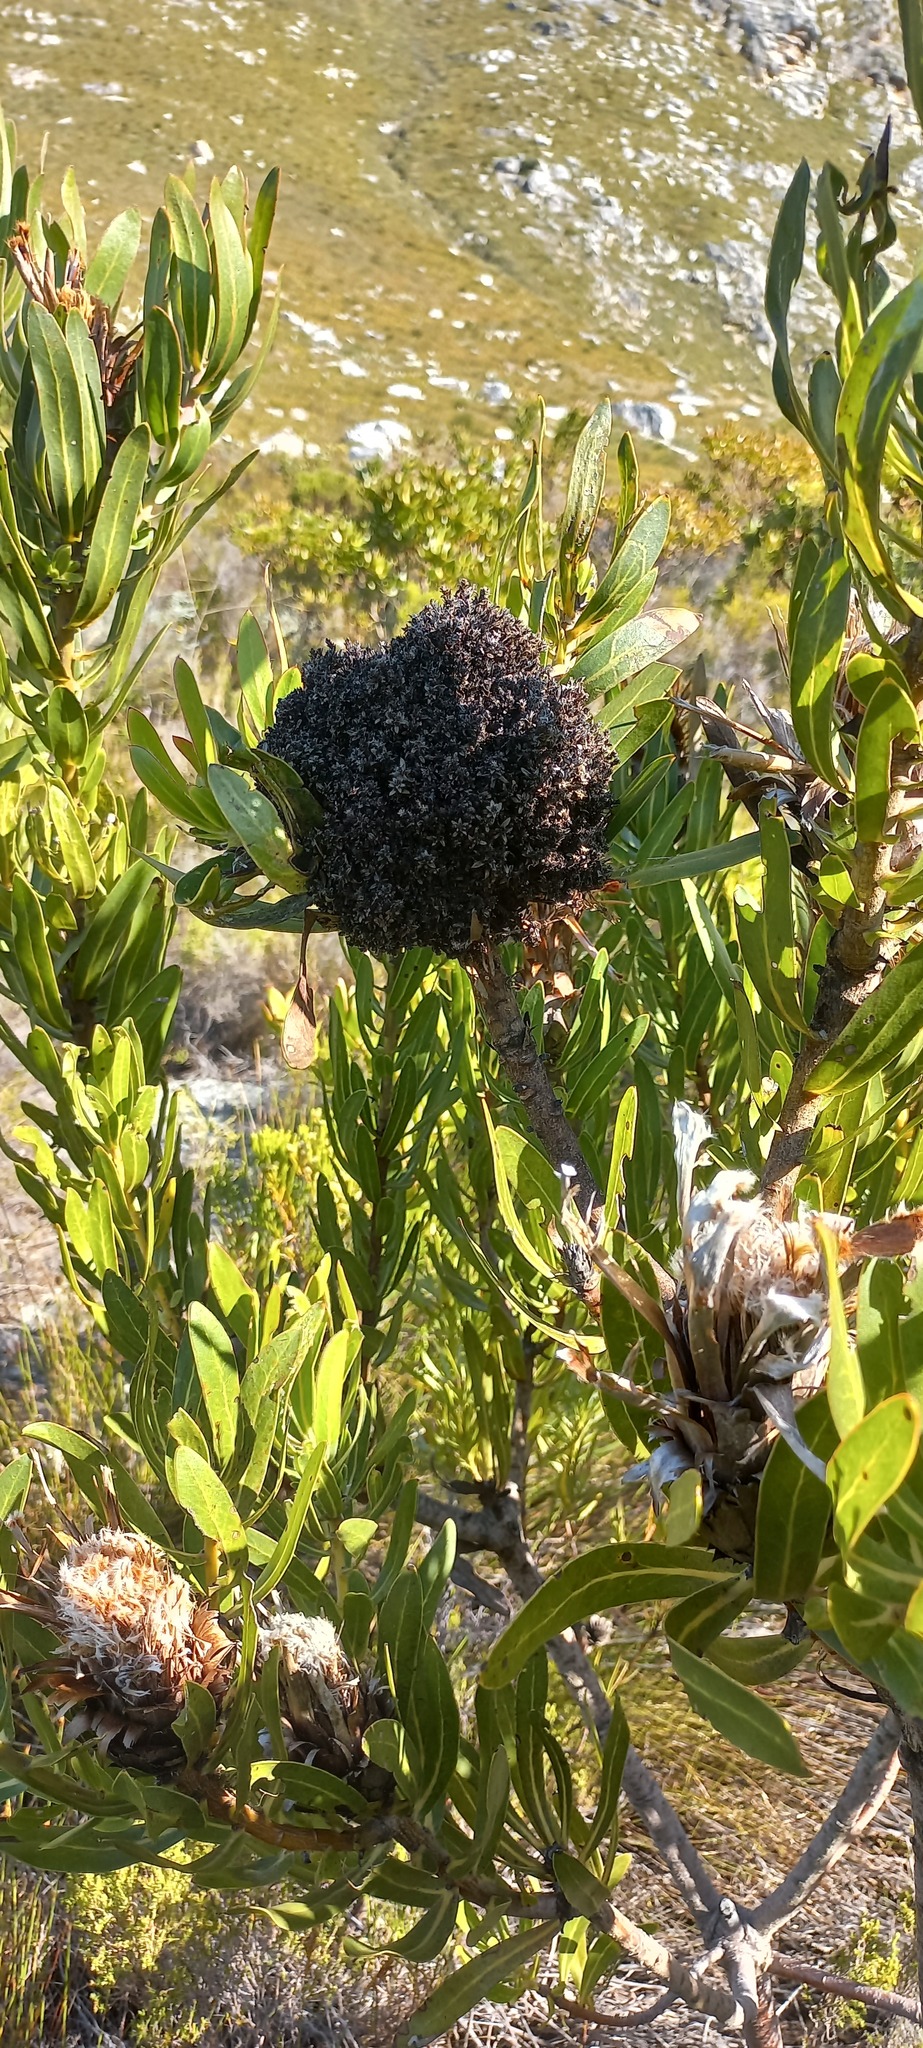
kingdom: Bacteria
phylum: Firmicutes
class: Bacilli
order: Acholeplasmatales
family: Acholeplasmataceae
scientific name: Acholeplasmataceae
